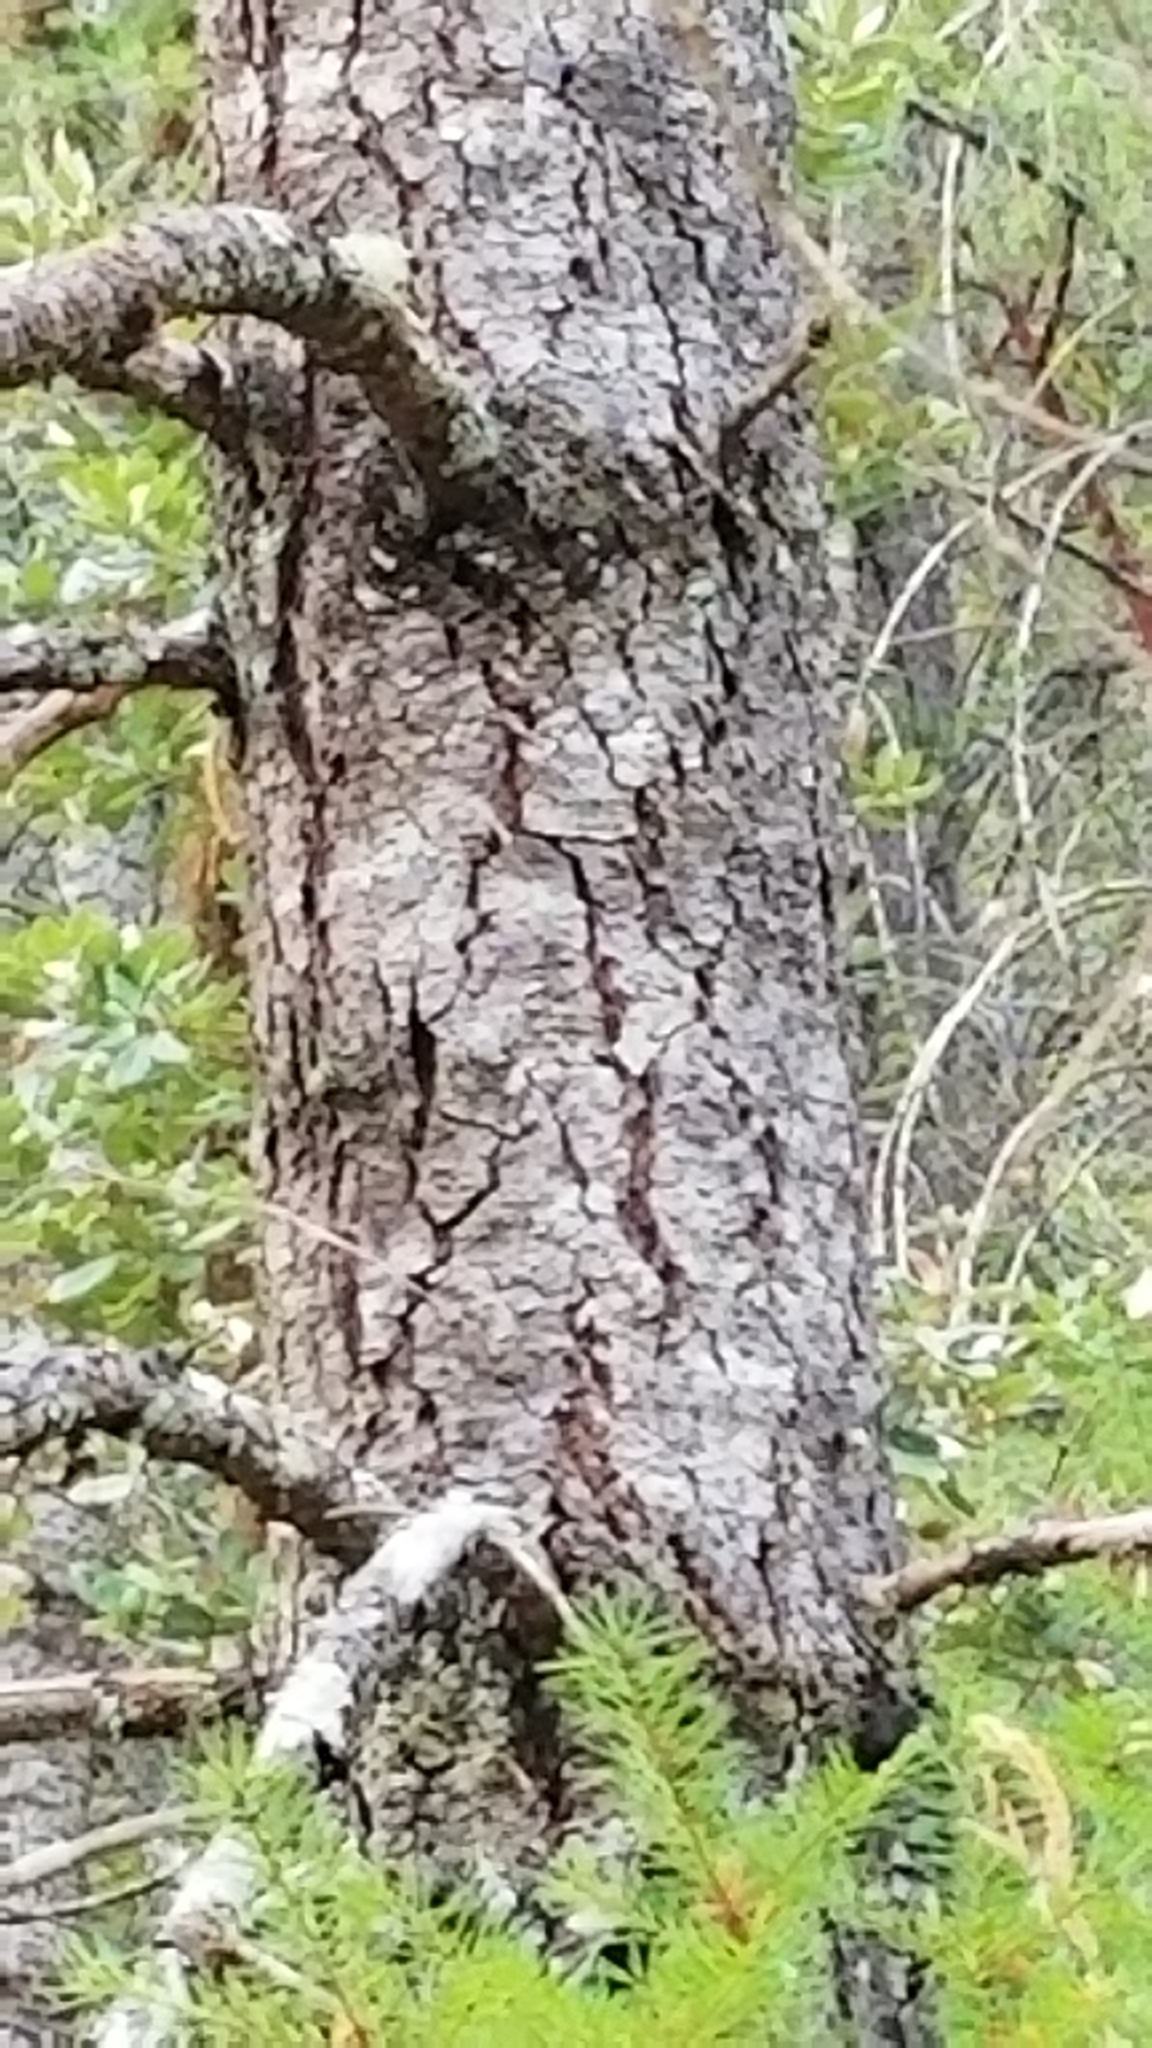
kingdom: Plantae
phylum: Tracheophyta
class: Pinopsida
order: Pinales
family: Pinaceae
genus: Pseudotsuga
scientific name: Pseudotsuga menziesii
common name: Douglas fir
